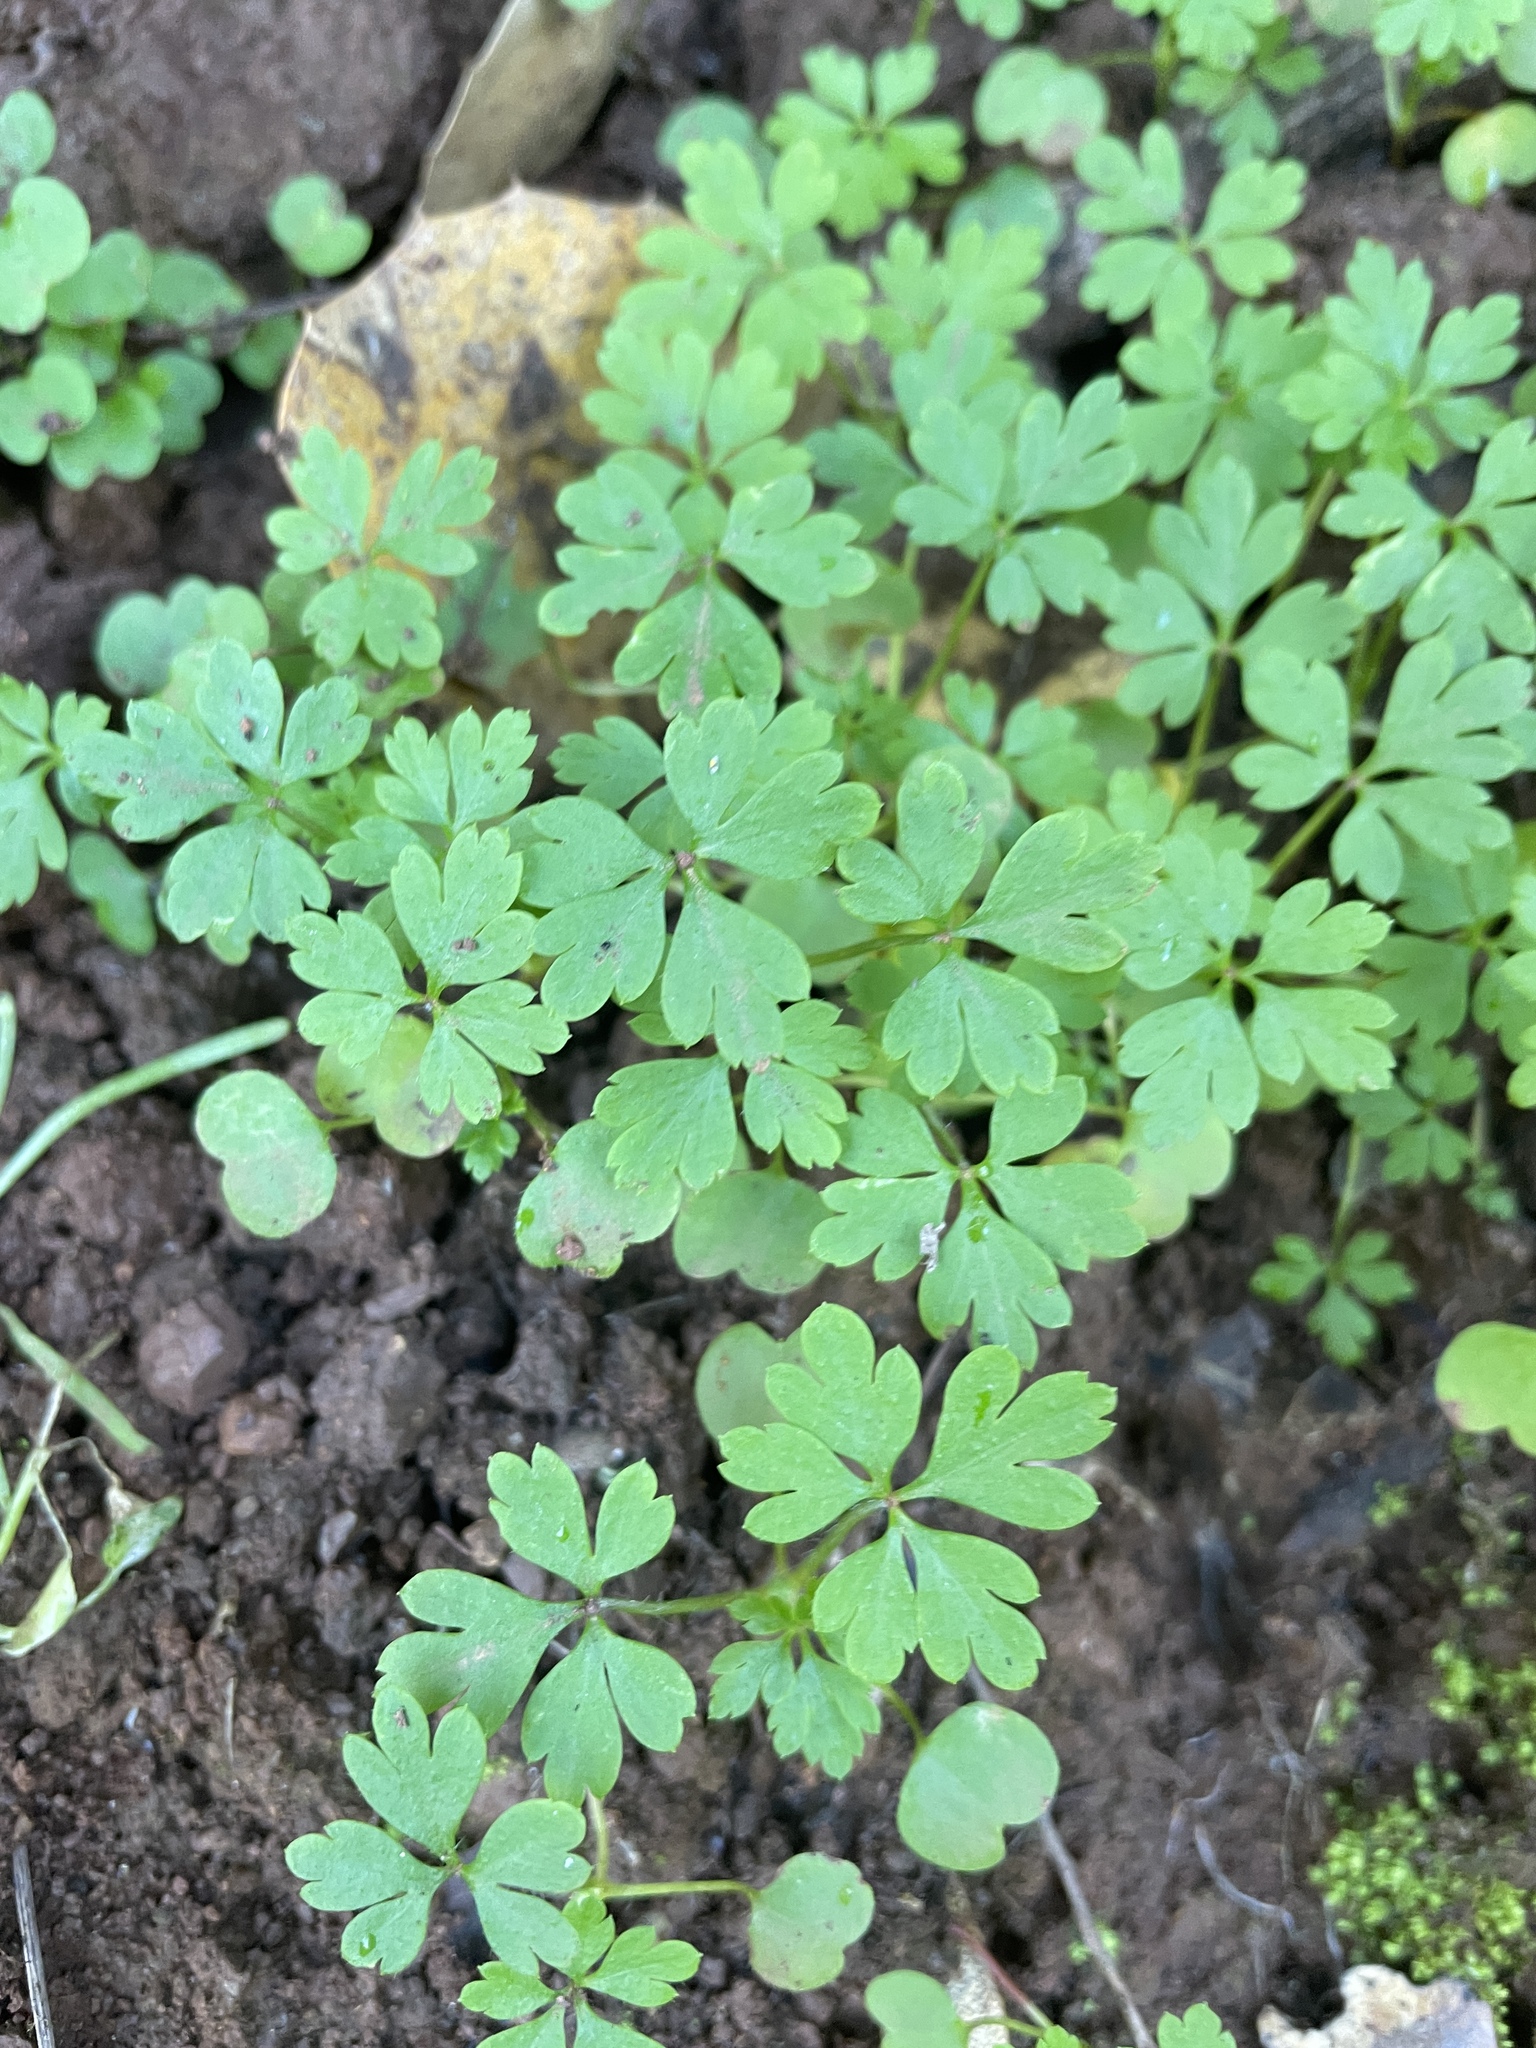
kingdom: Plantae
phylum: Tracheophyta
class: Magnoliopsida
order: Geraniales
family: Geraniaceae
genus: Geranium
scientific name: Geranium
